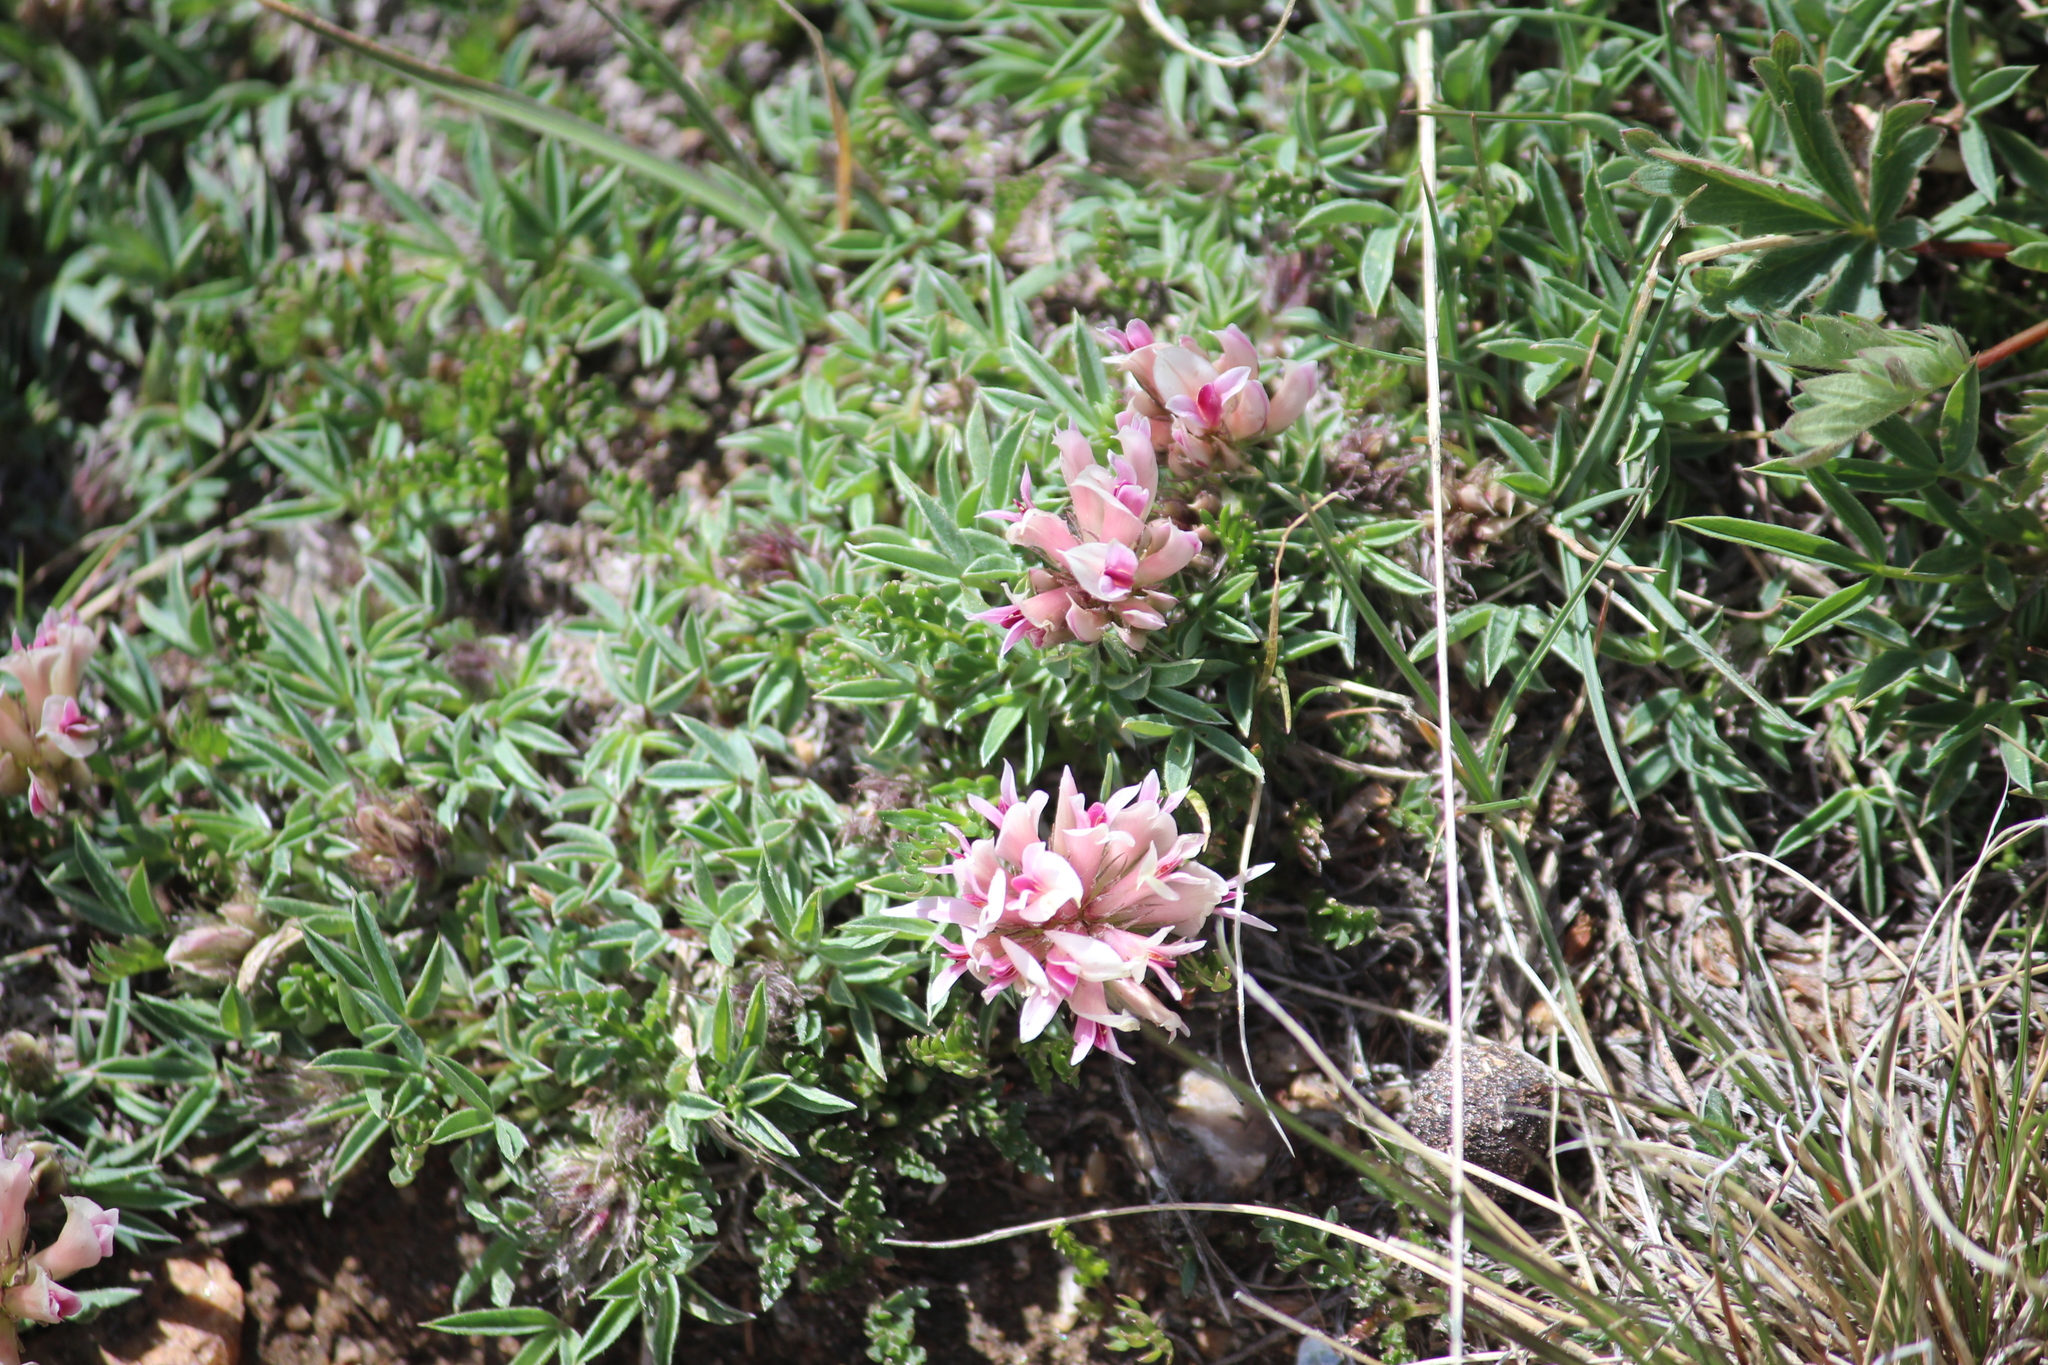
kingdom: Plantae
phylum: Tracheophyta
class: Magnoliopsida
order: Fabales
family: Fabaceae
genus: Trifolium
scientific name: Trifolium dasyphyllum
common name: Whip-root clover
